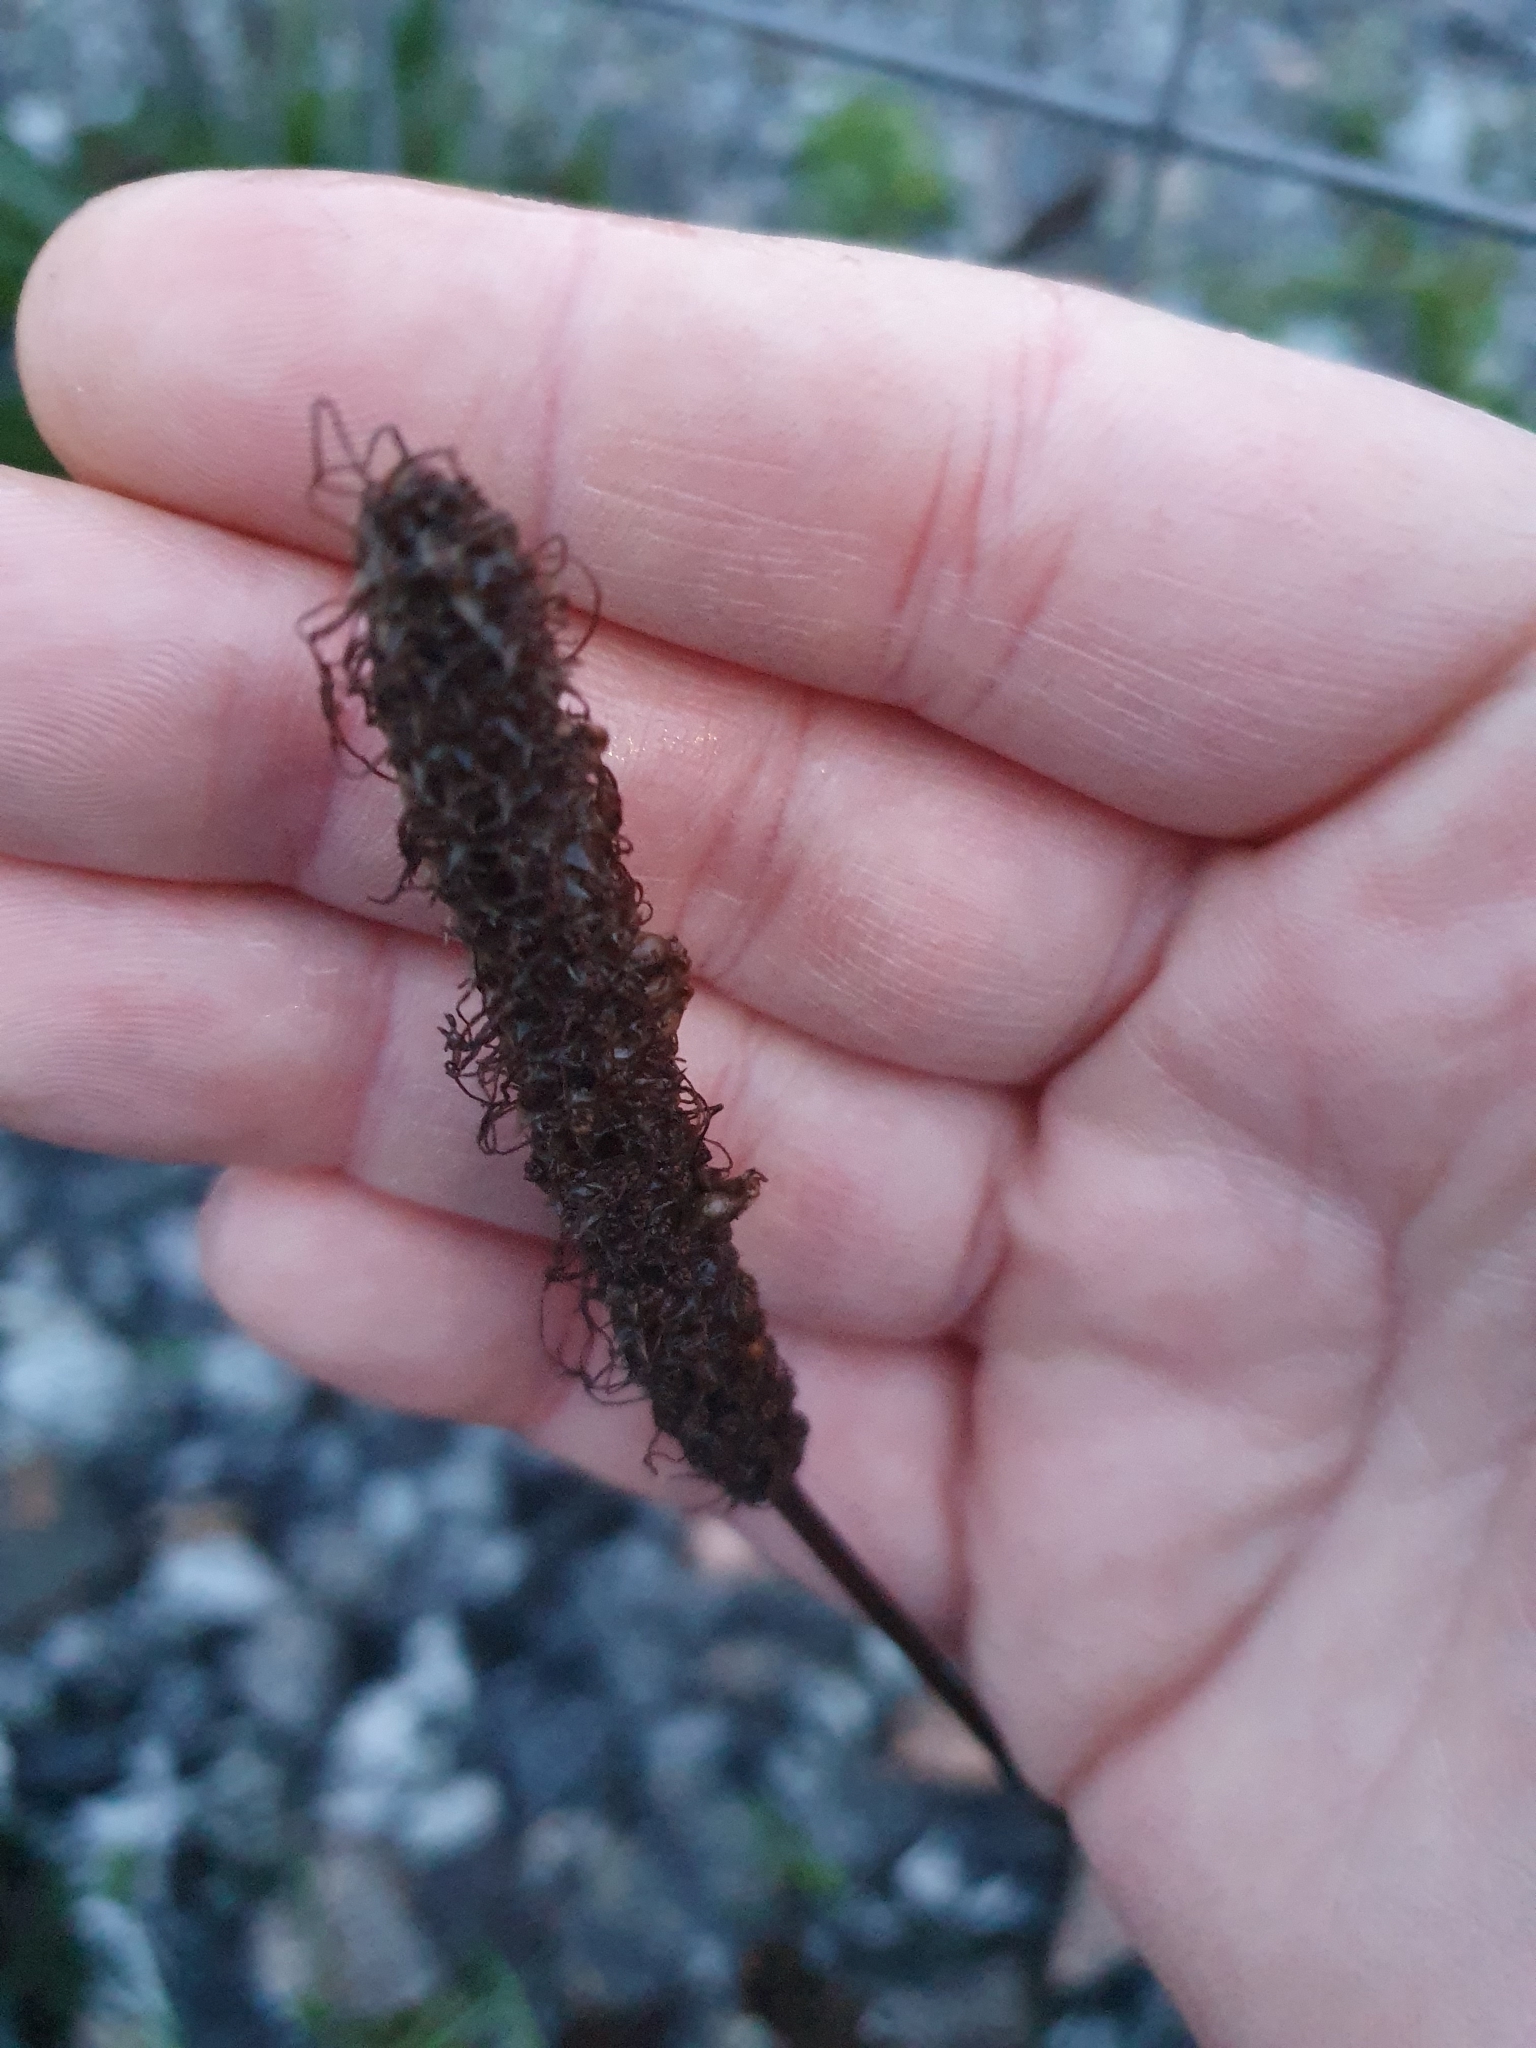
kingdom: Plantae
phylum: Tracheophyta
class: Magnoliopsida
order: Lamiales
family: Plantaginaceae
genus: Plantago
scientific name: Plantago lanceolata
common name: Ribwort plantain
